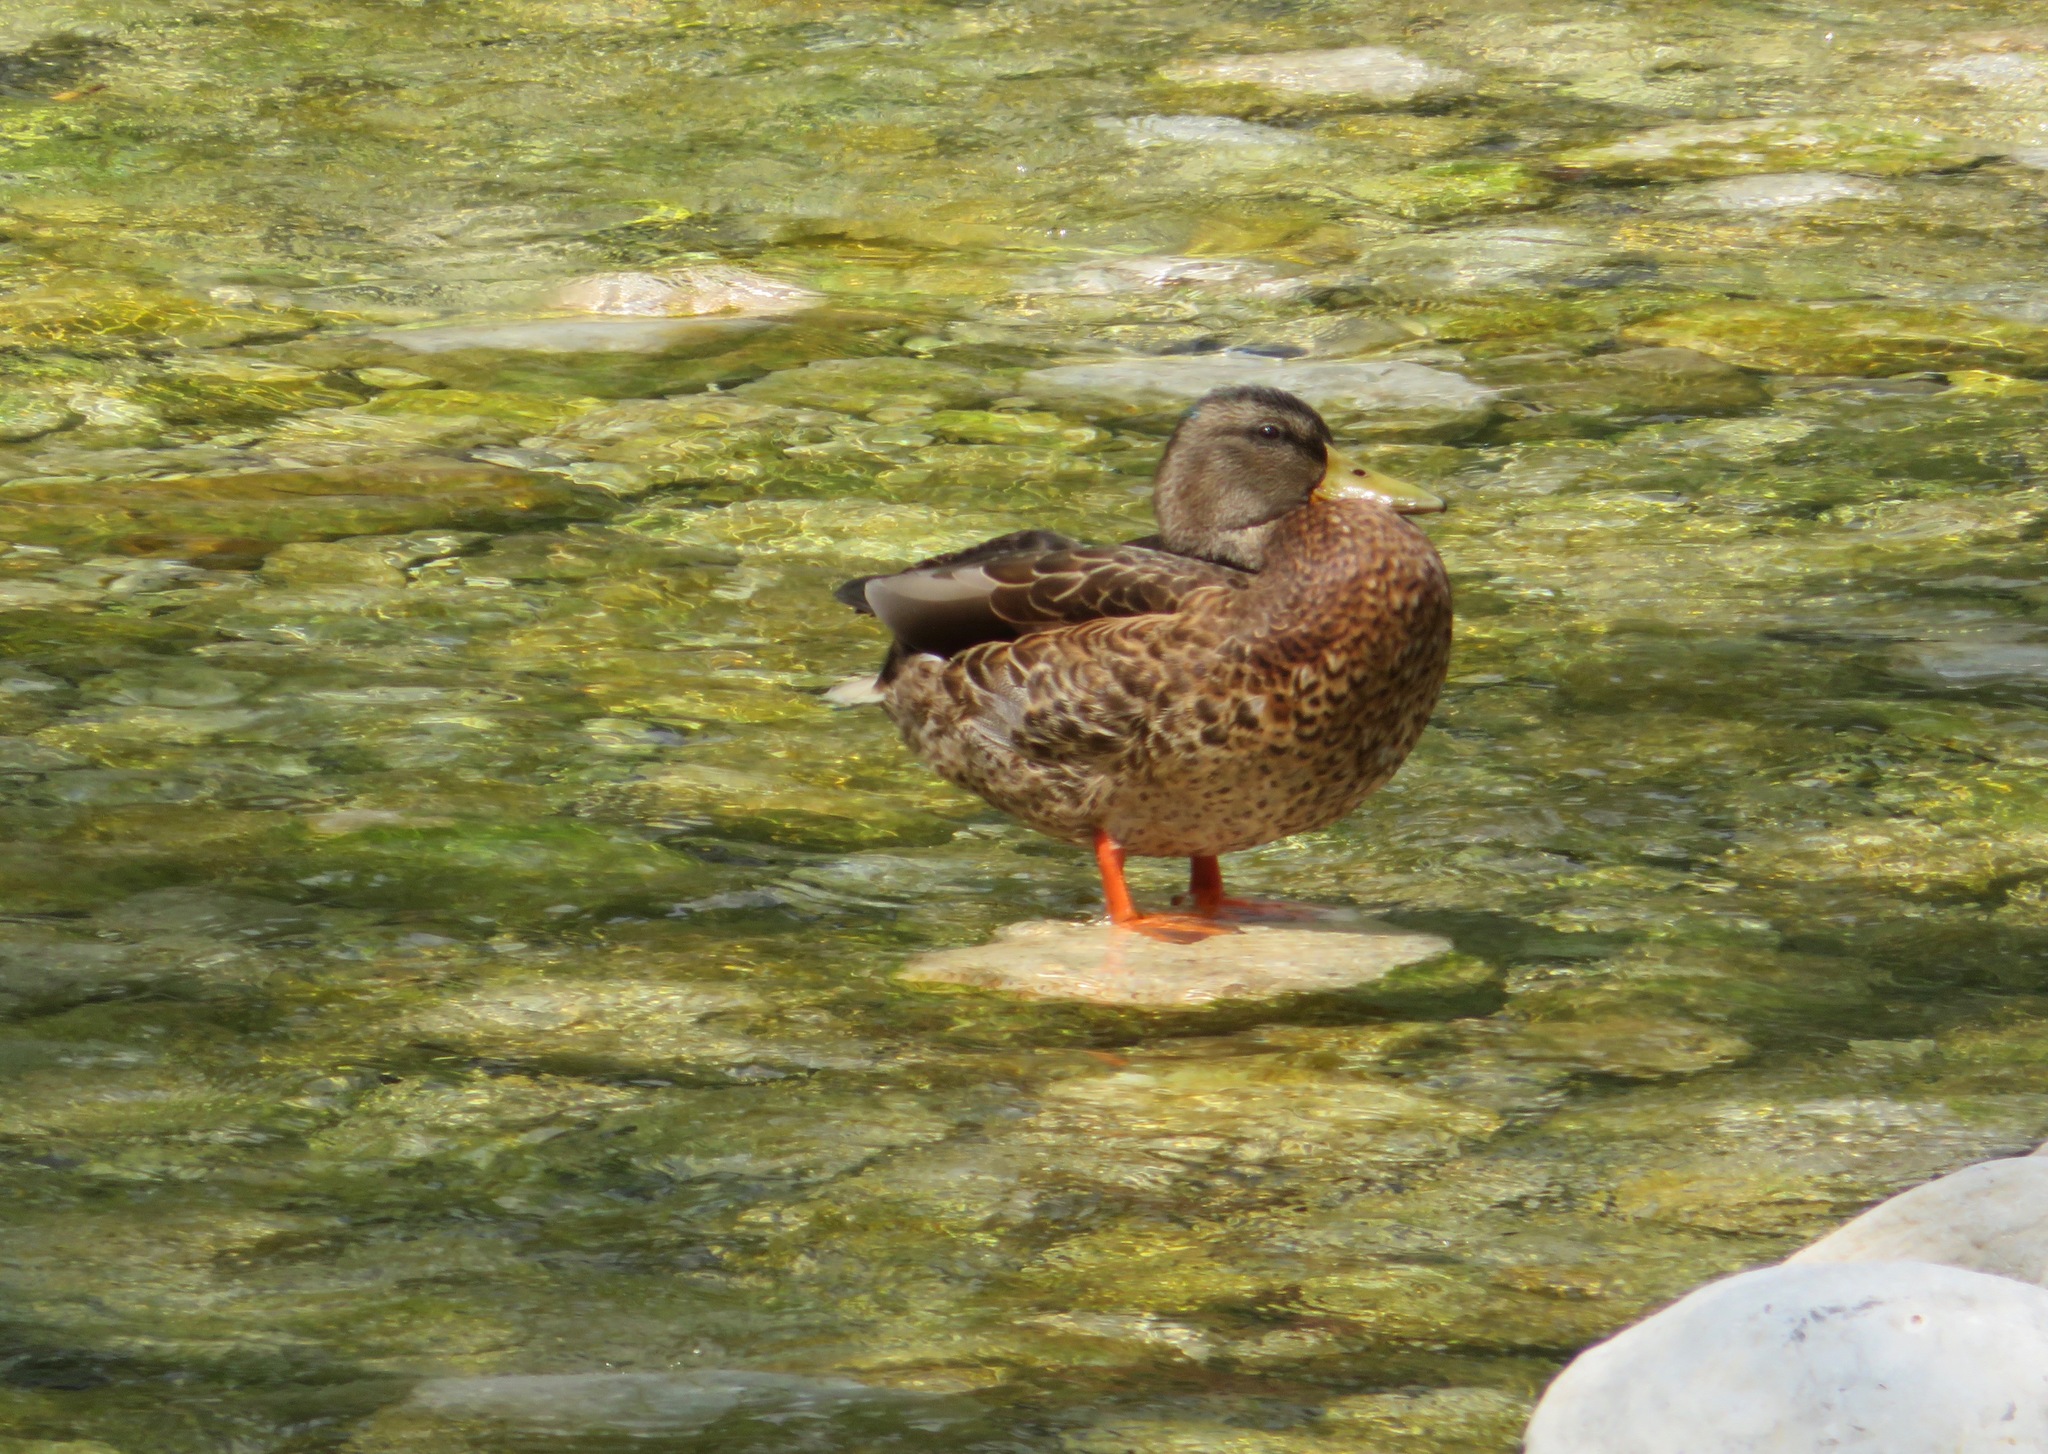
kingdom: Animalia
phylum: Chordata
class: Aves
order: Anseriformes
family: Anatidae
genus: Anas
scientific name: Anas platyrhynchos
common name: Mallard
